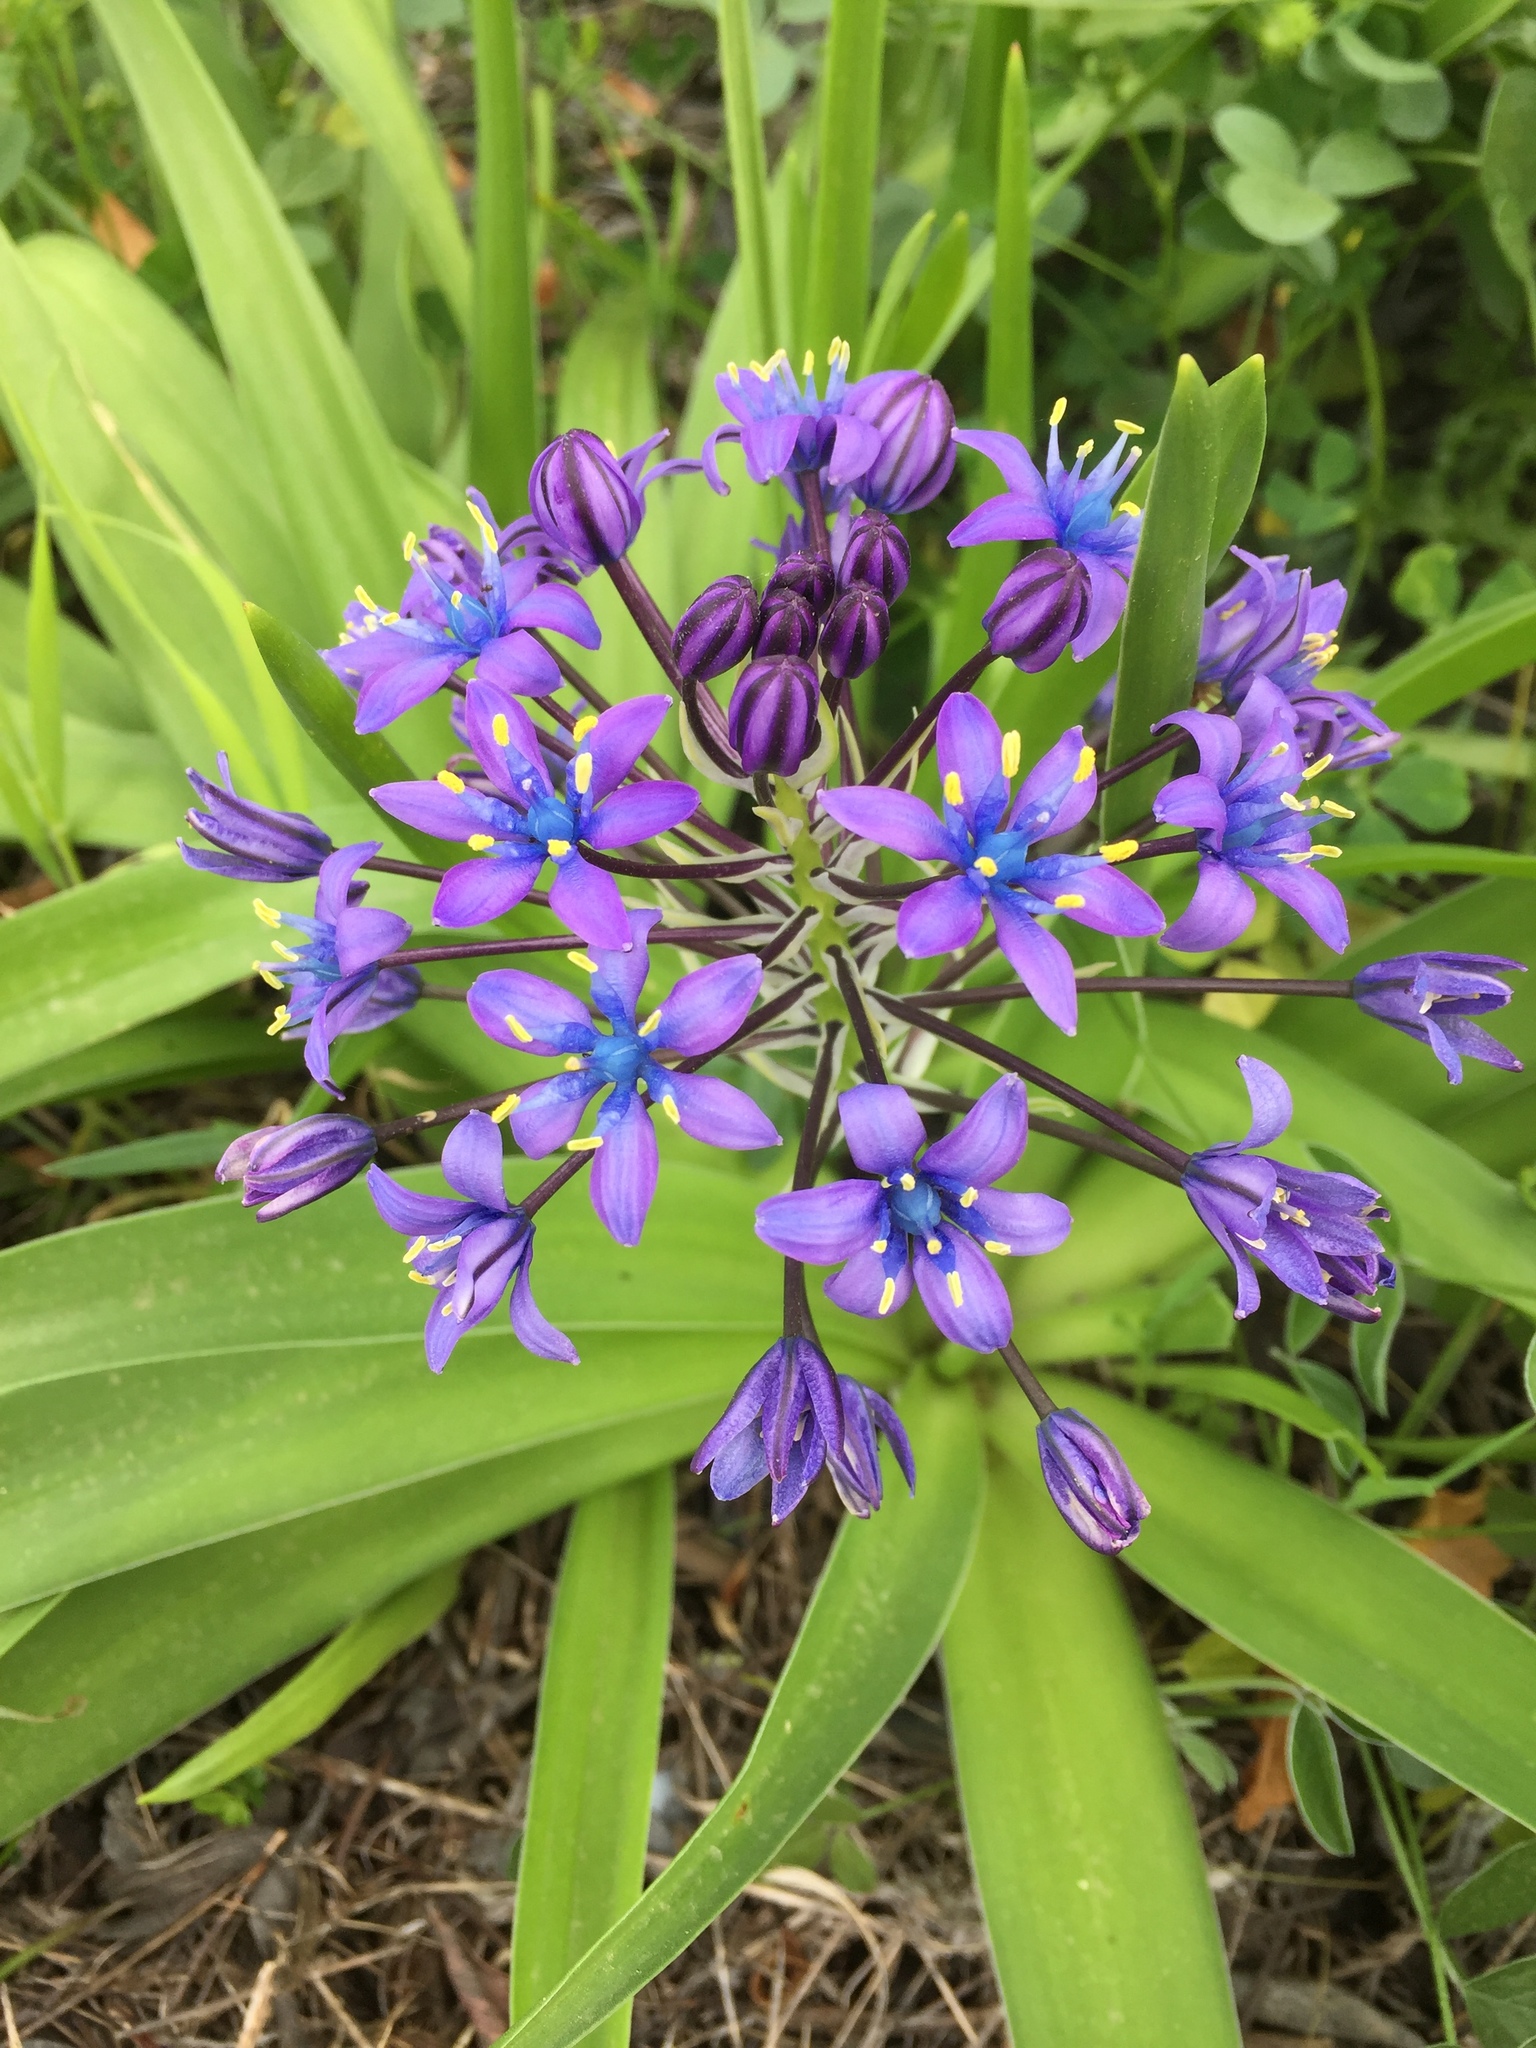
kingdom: Plantae
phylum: Tracheophyta
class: Liliopsida
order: Asparagales
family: Asparagaceae
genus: Scilla
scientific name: Scilla peruviana
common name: Portuguese squill
